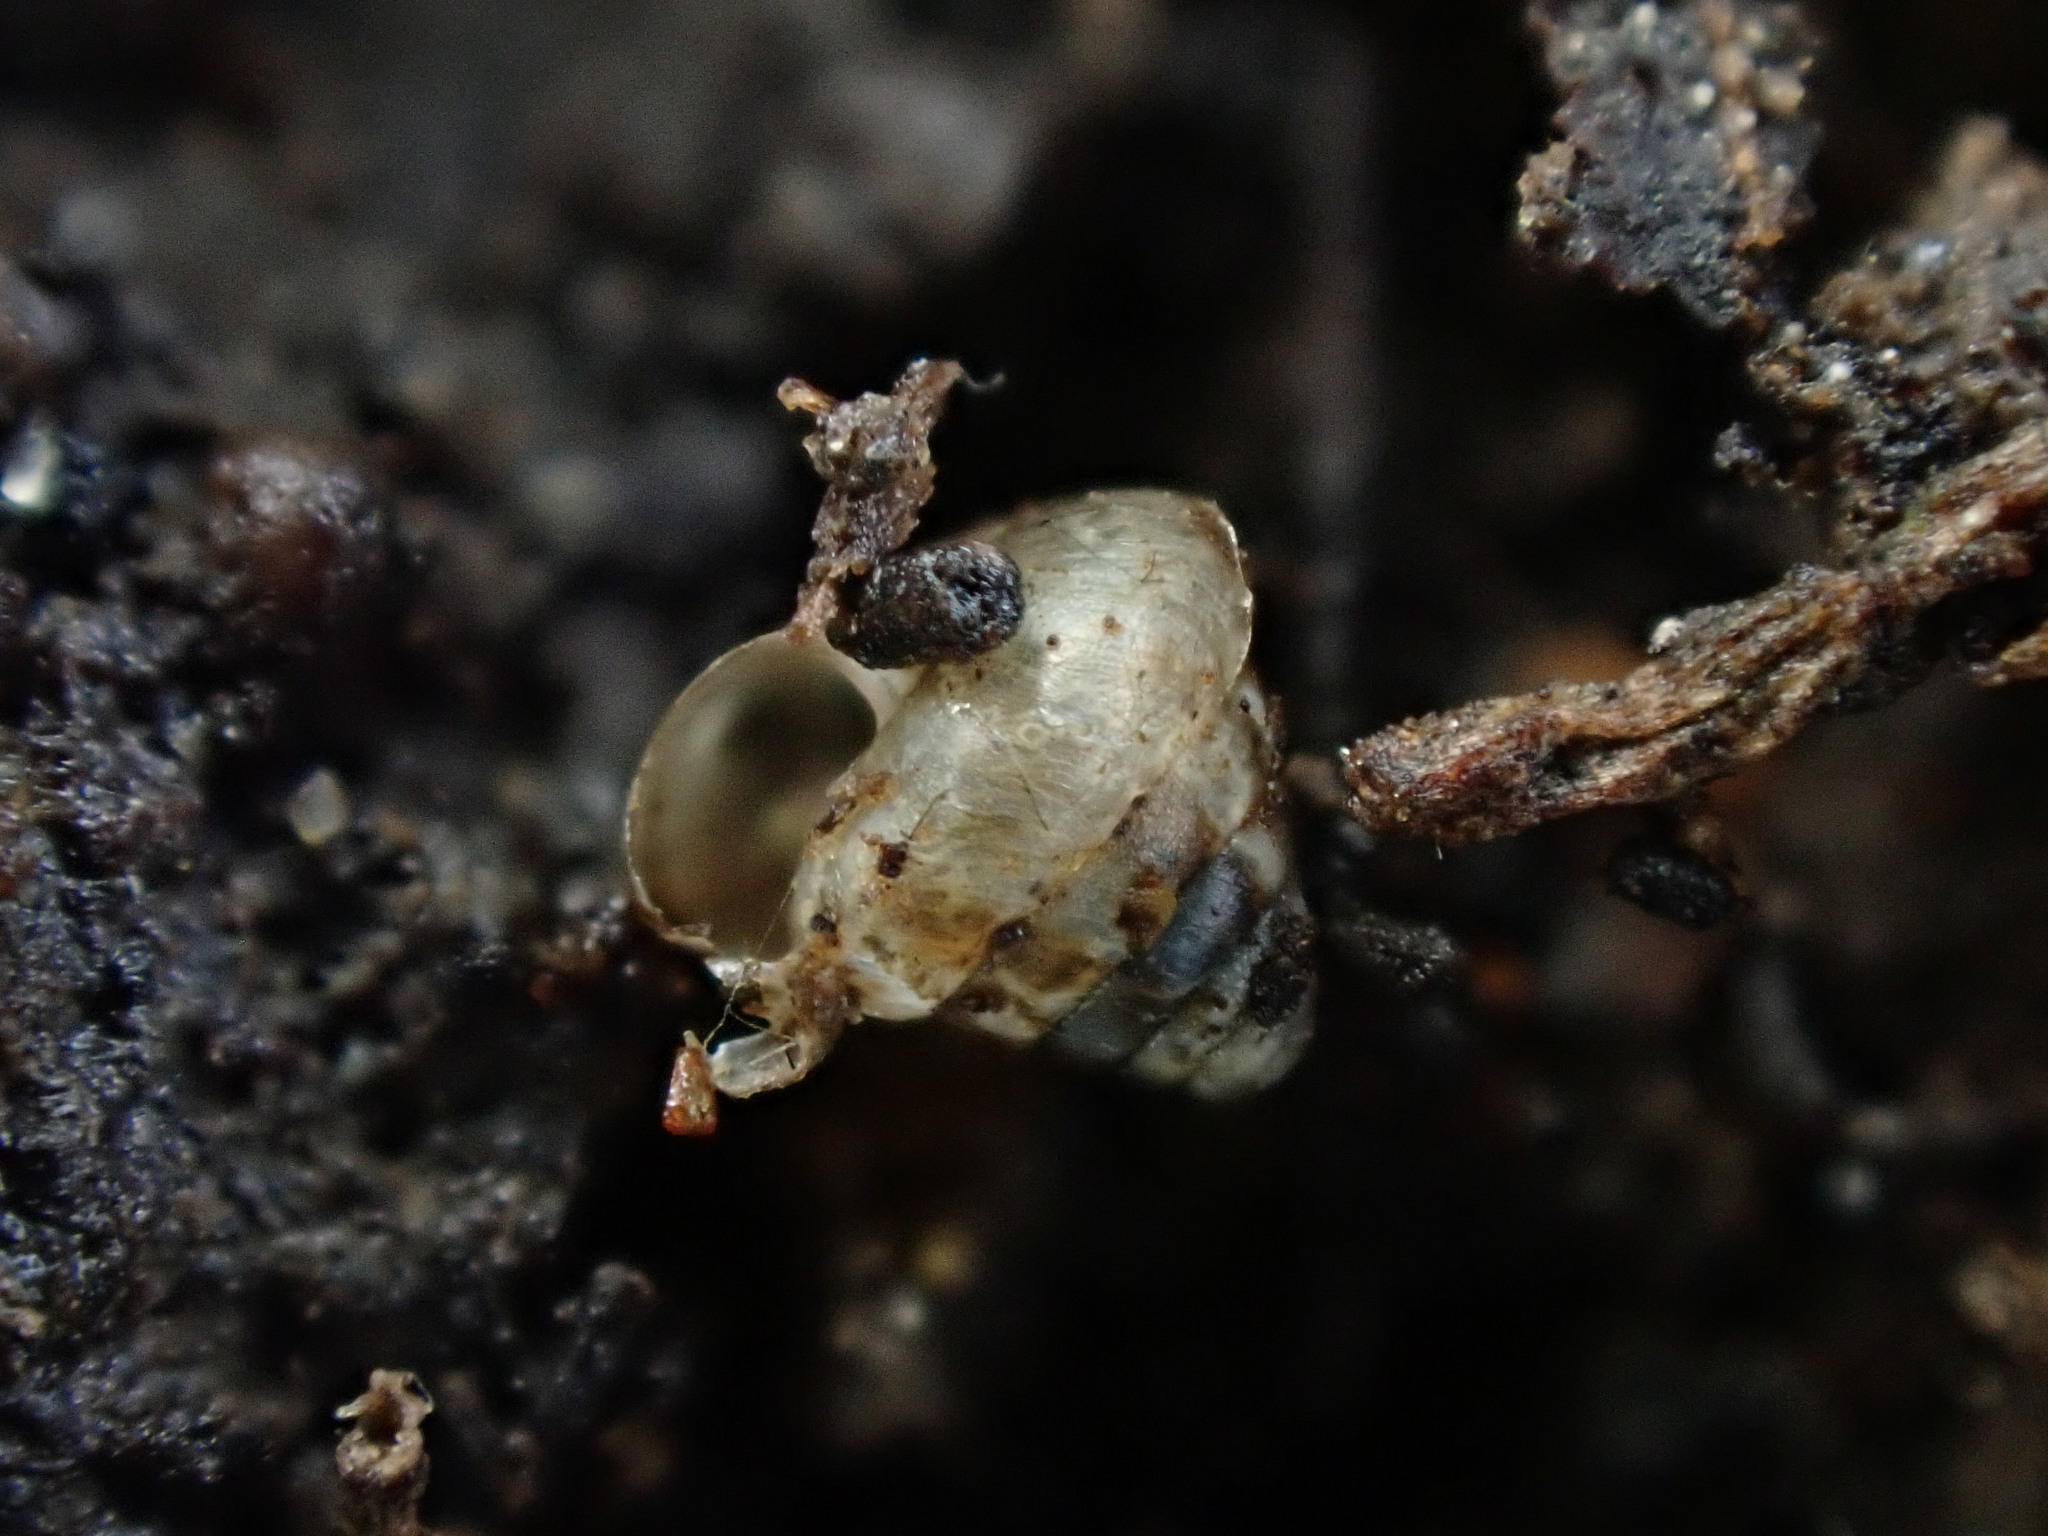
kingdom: Animalia
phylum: Mollusca
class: Gastropoda
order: Stylommatophora
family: Punctidae
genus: Phrixgnathus
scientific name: Phrixgnathus erigone
